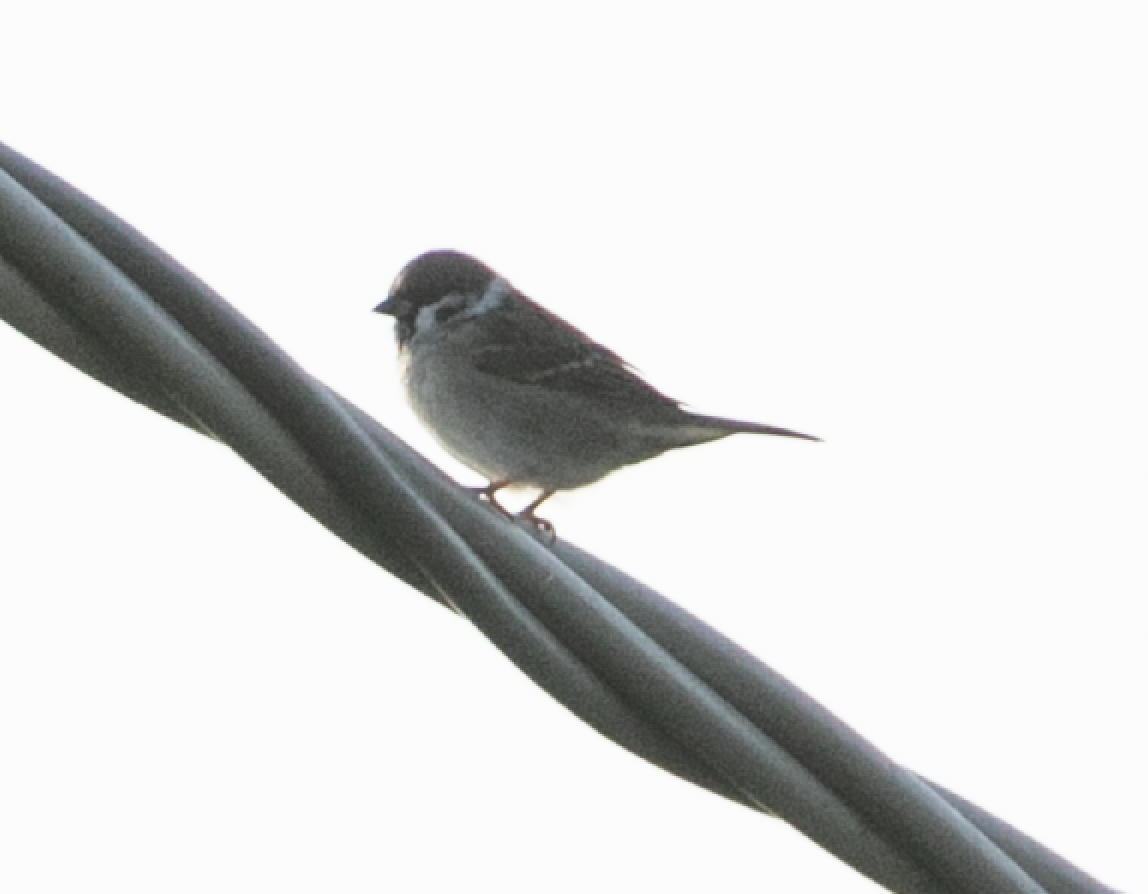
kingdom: Animalia
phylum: Chordata
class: Aves
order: Passeriformes
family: Passeridae
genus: Passer
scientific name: Passer montanus
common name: Eurasian tree sparrow
